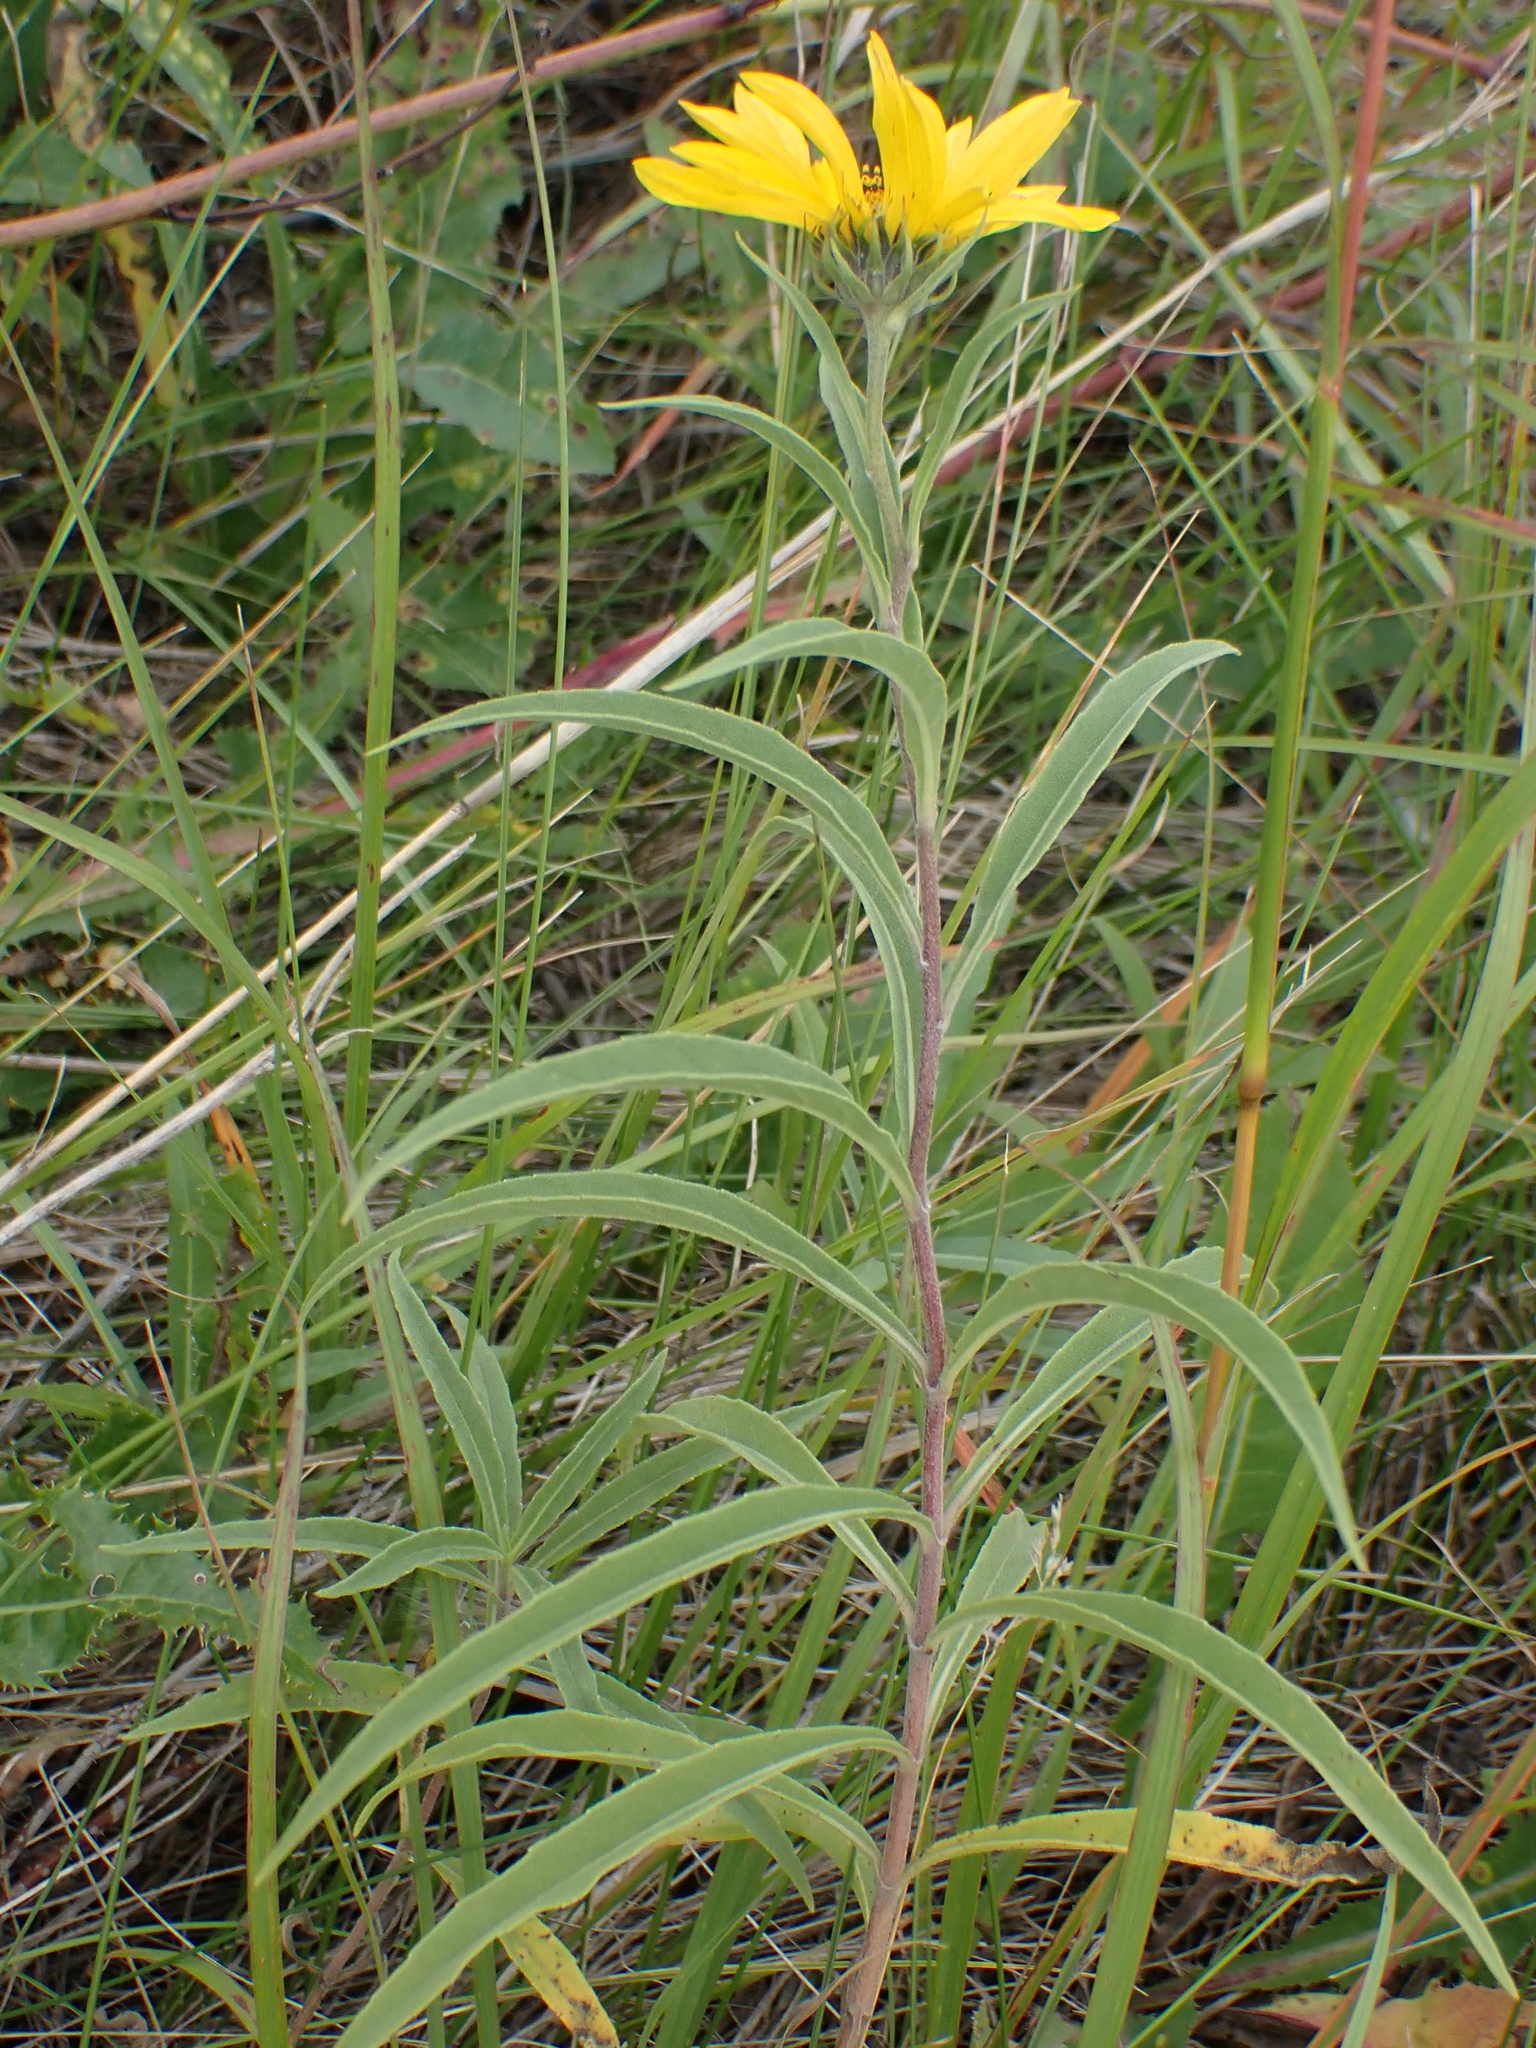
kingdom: Plantae
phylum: Tracheophyta
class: Magnoliopsida
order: Asterales
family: Asteraceae
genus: Helianthus
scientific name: Helianthus maximiliani
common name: Maximilian's sunflower
